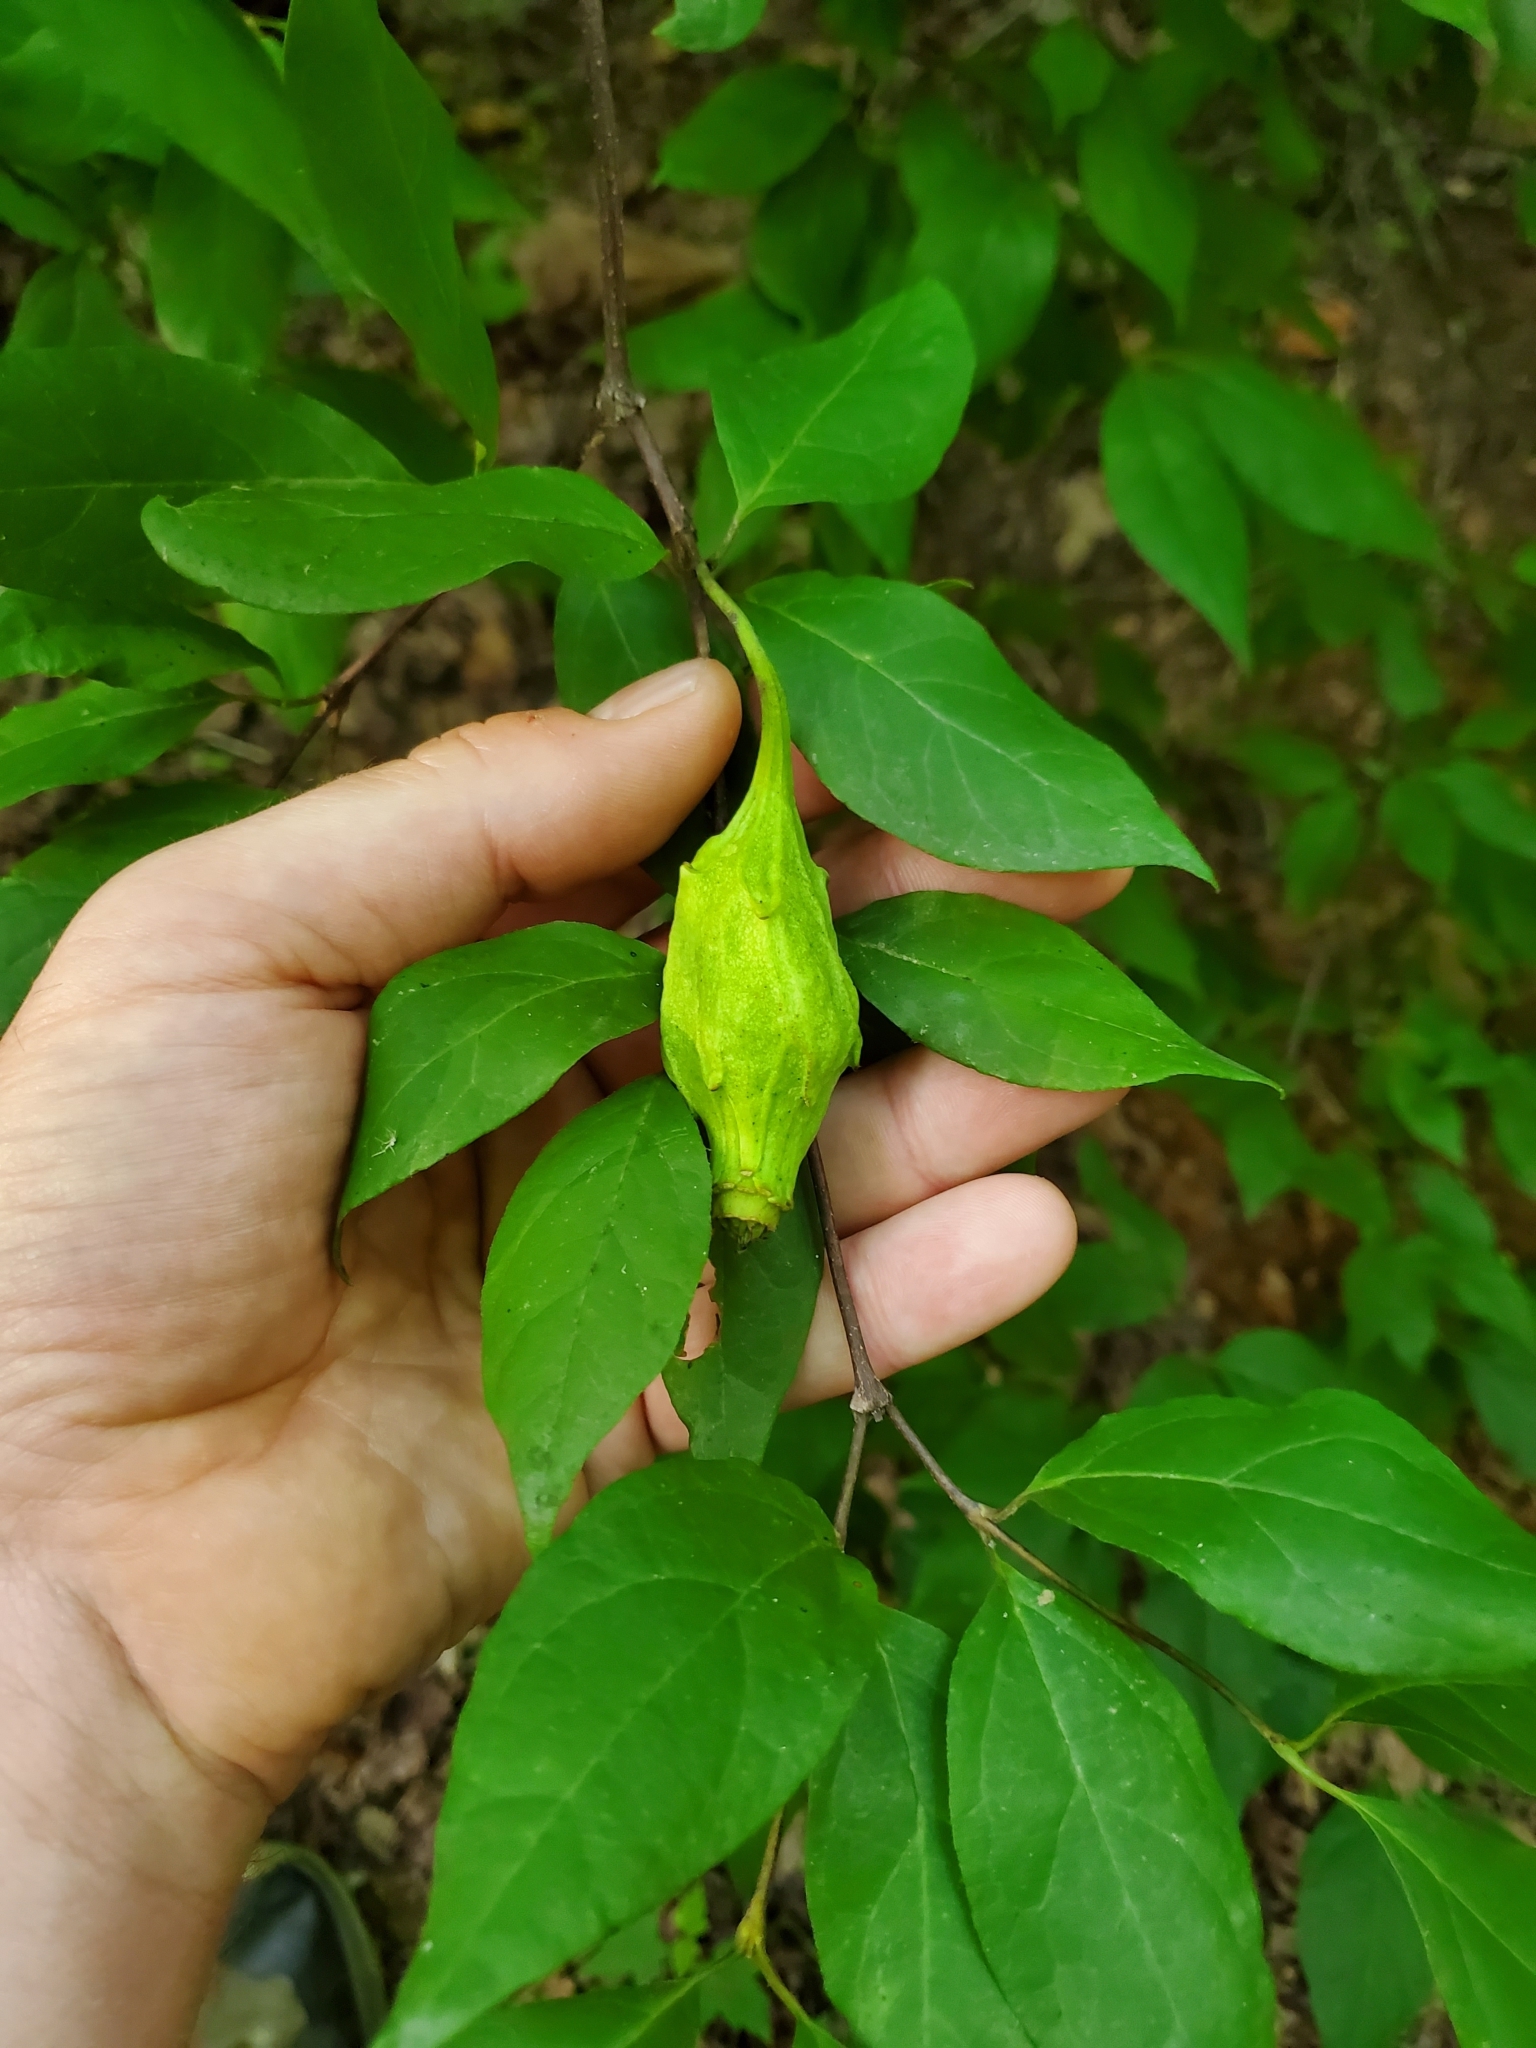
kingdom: Plantae
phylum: Tracheophyta
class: Magnoliopsida
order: Laurales
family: Calycanthaceae
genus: Calycanthus
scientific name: Calycanthus floridus
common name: Carolina-allspice
